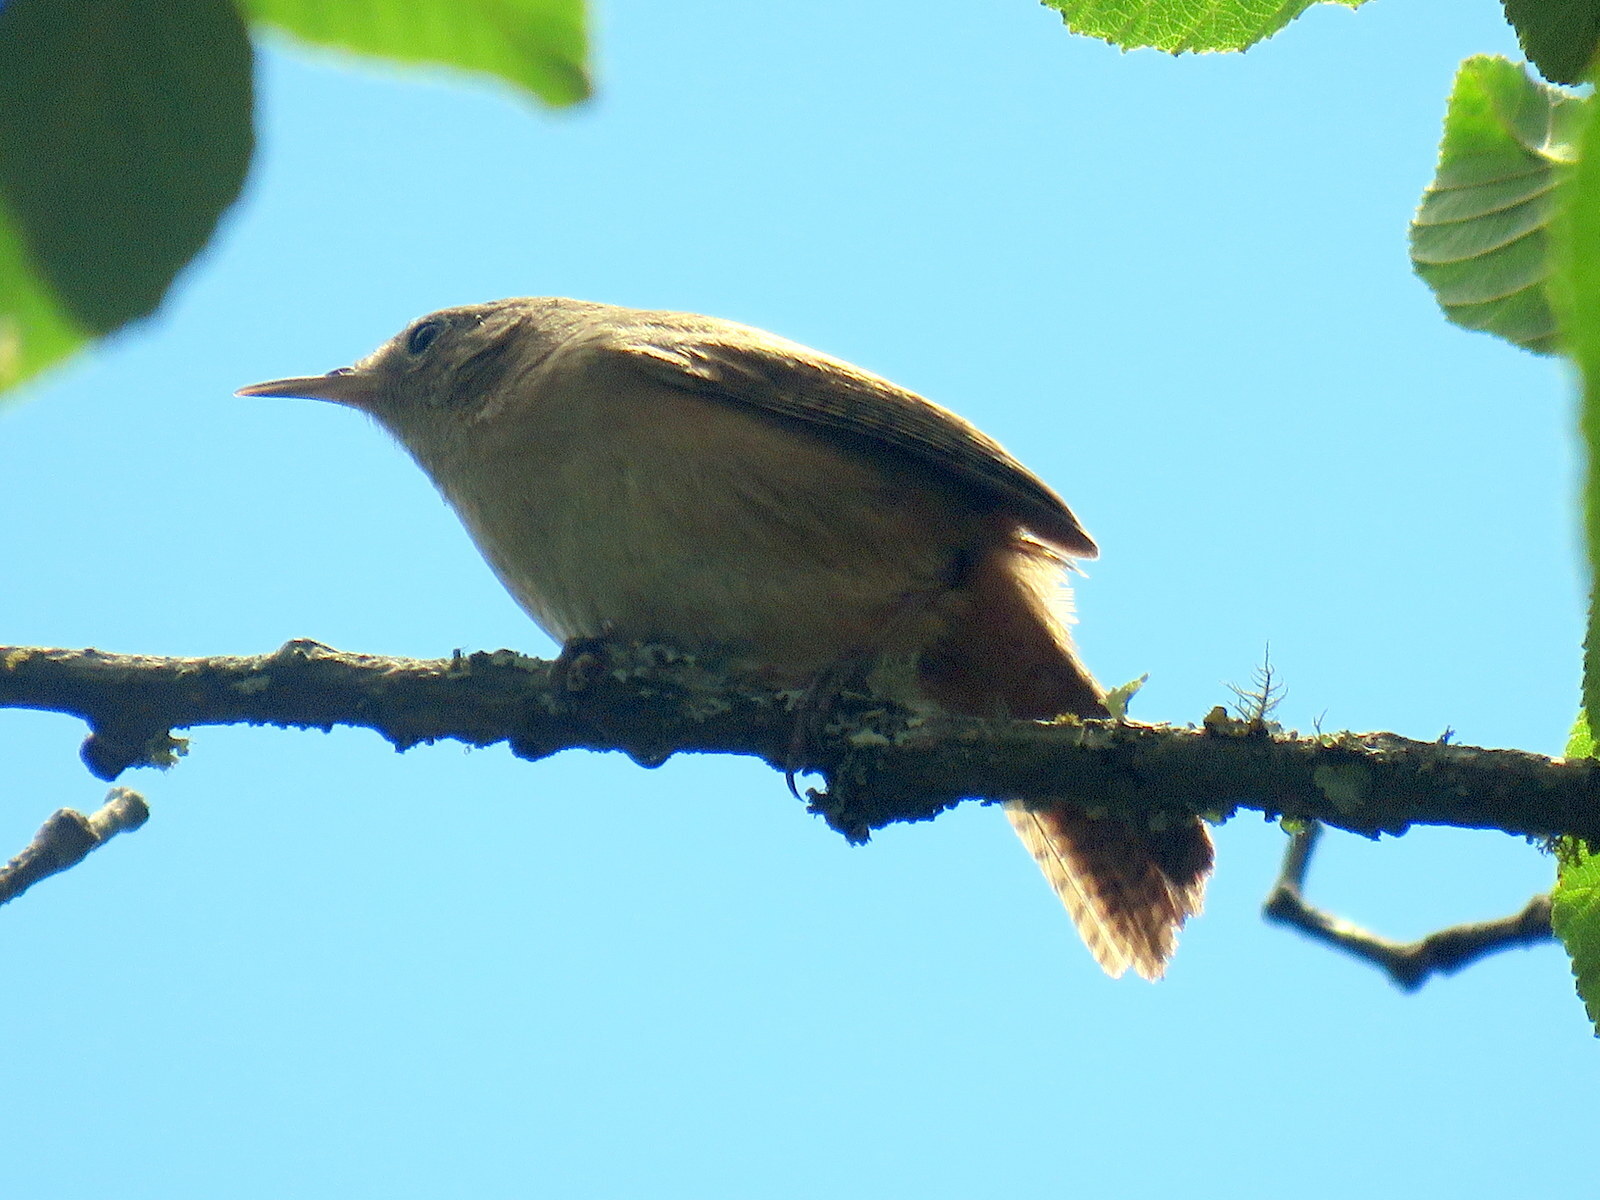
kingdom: Animalia
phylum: Chordata
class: Aves
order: Passeriformes
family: Troglodytidae
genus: Troglodytes
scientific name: Troglodytes aedon
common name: House wren
